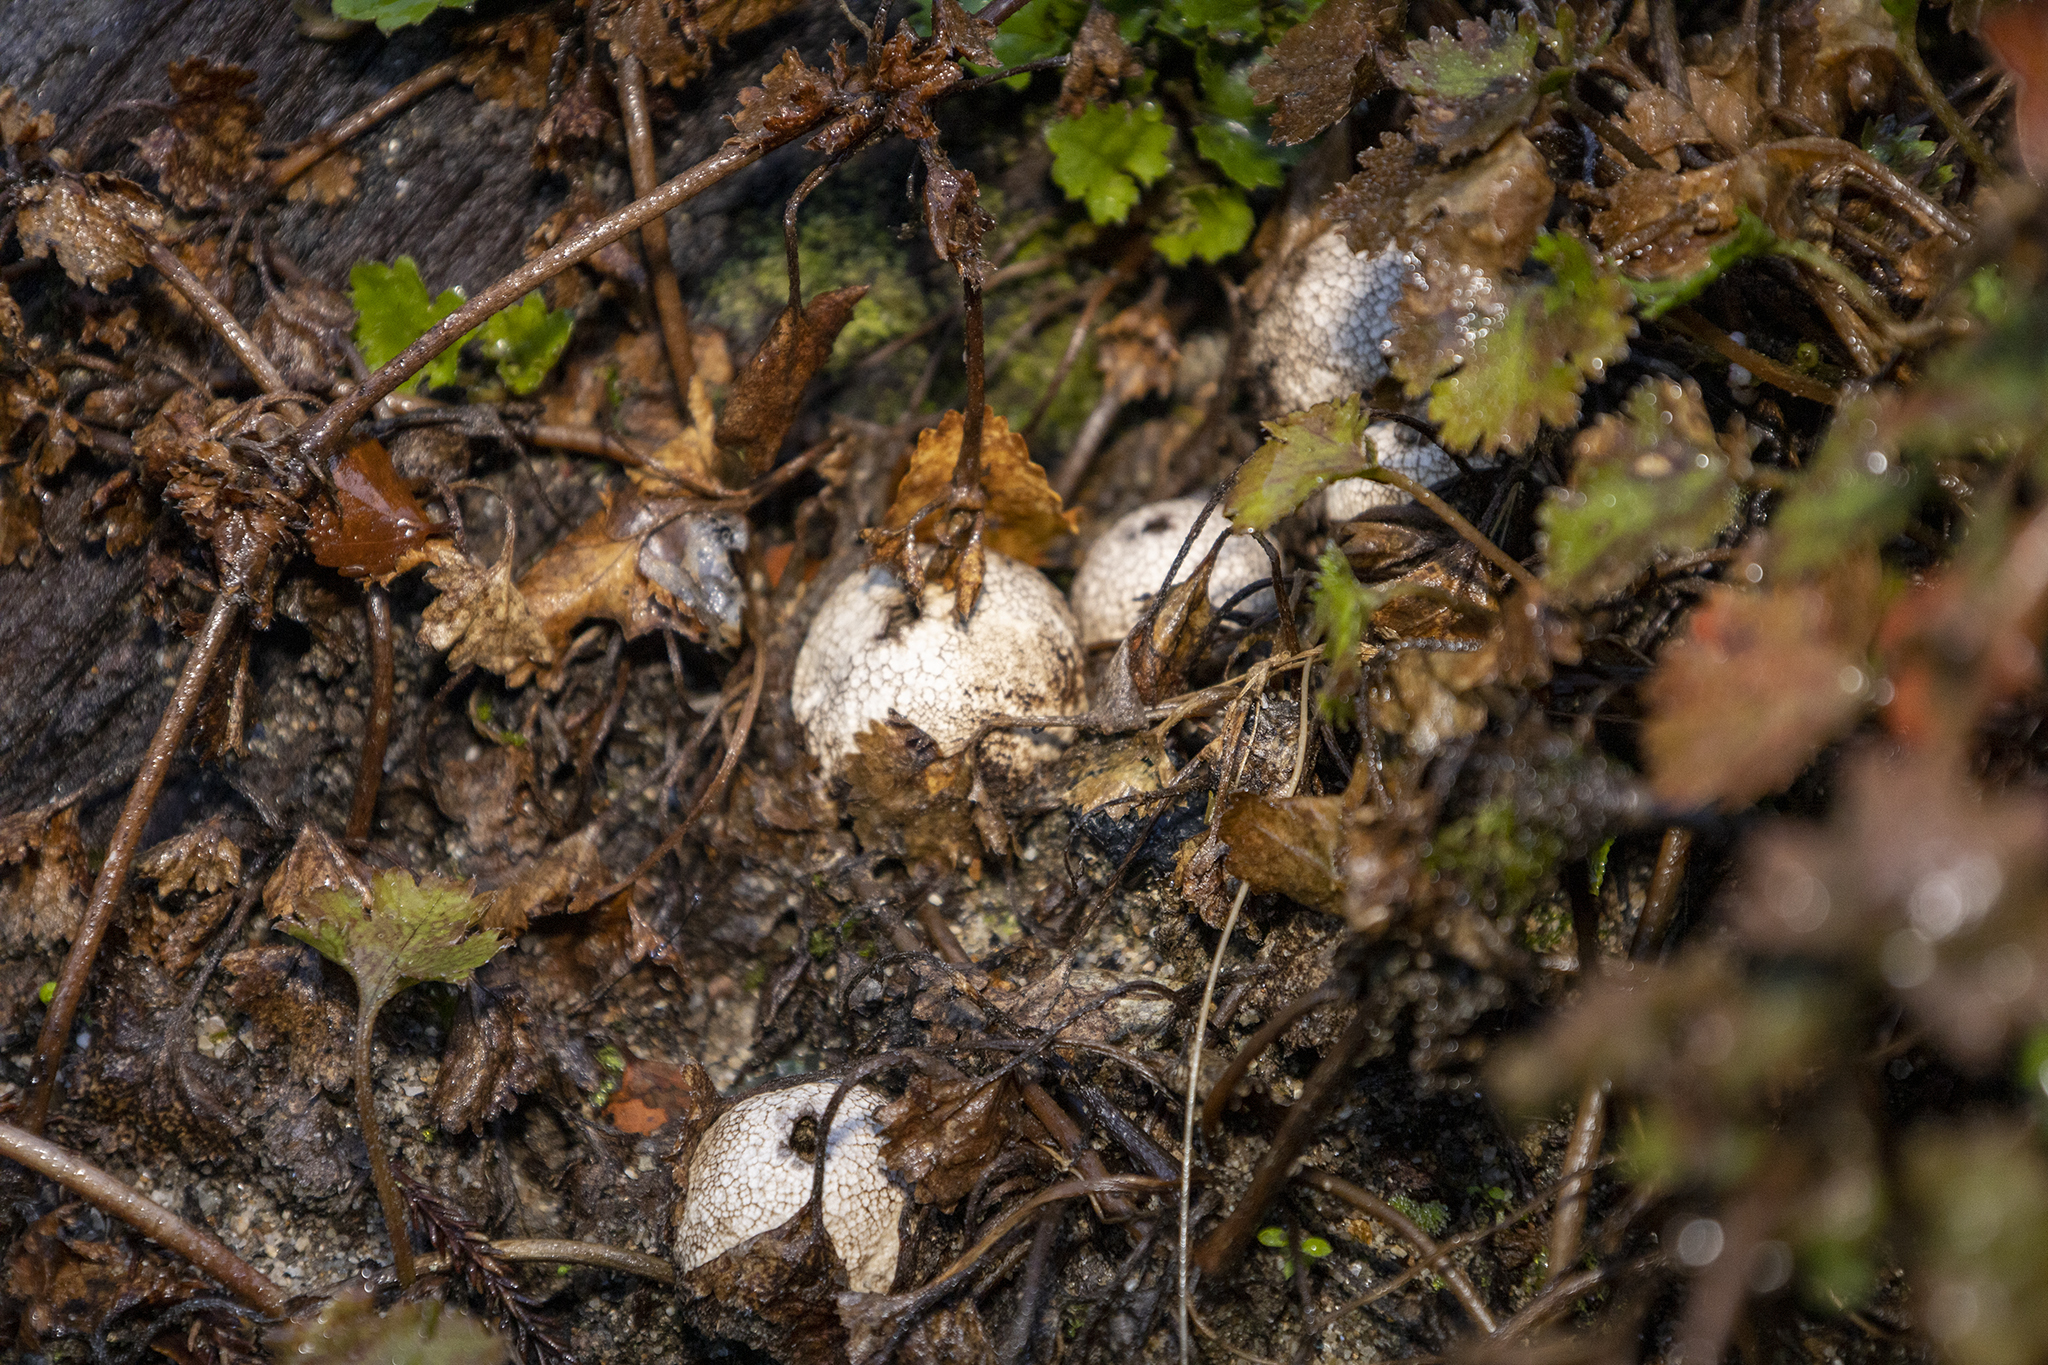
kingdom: Fungi
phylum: Basidiomycota
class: Agaricomycetes
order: Agaricales
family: Lycoperdaceae
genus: Lycoperdon
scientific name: Lycoperdon compactum
